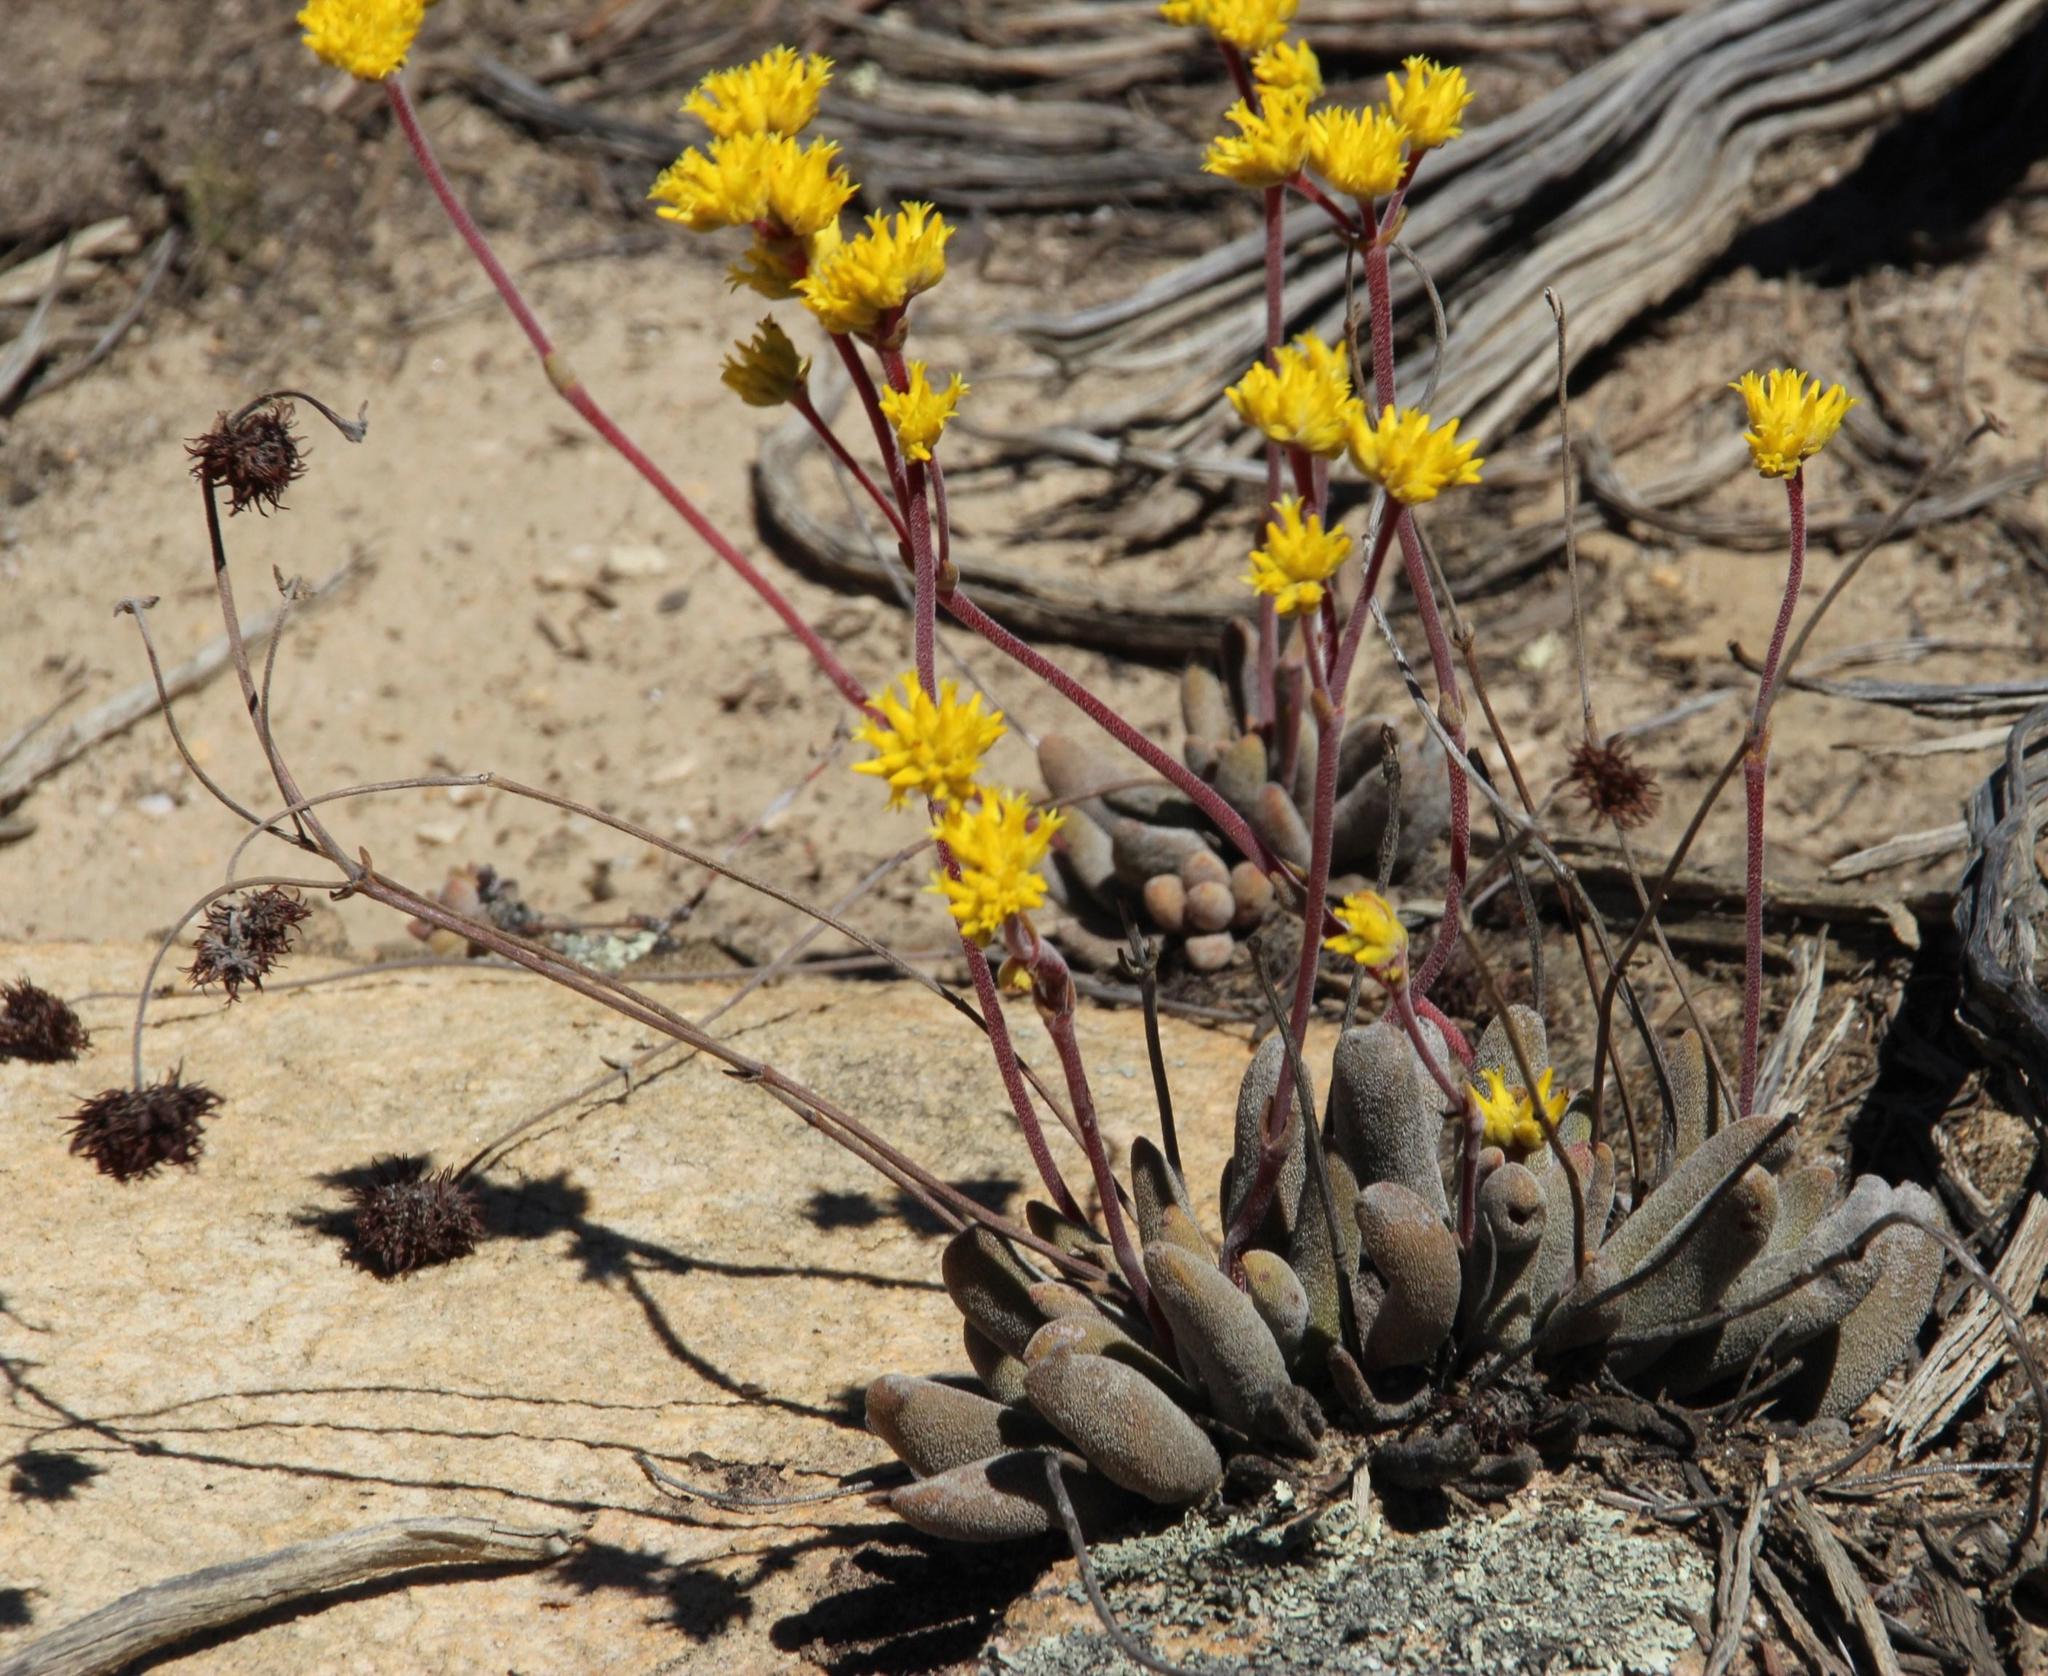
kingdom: Plantae
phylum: Tracheophyta
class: Magnoliopsida
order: Saxifragales
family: Crassulaceae
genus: Crassula
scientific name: Crassula namaquensis
